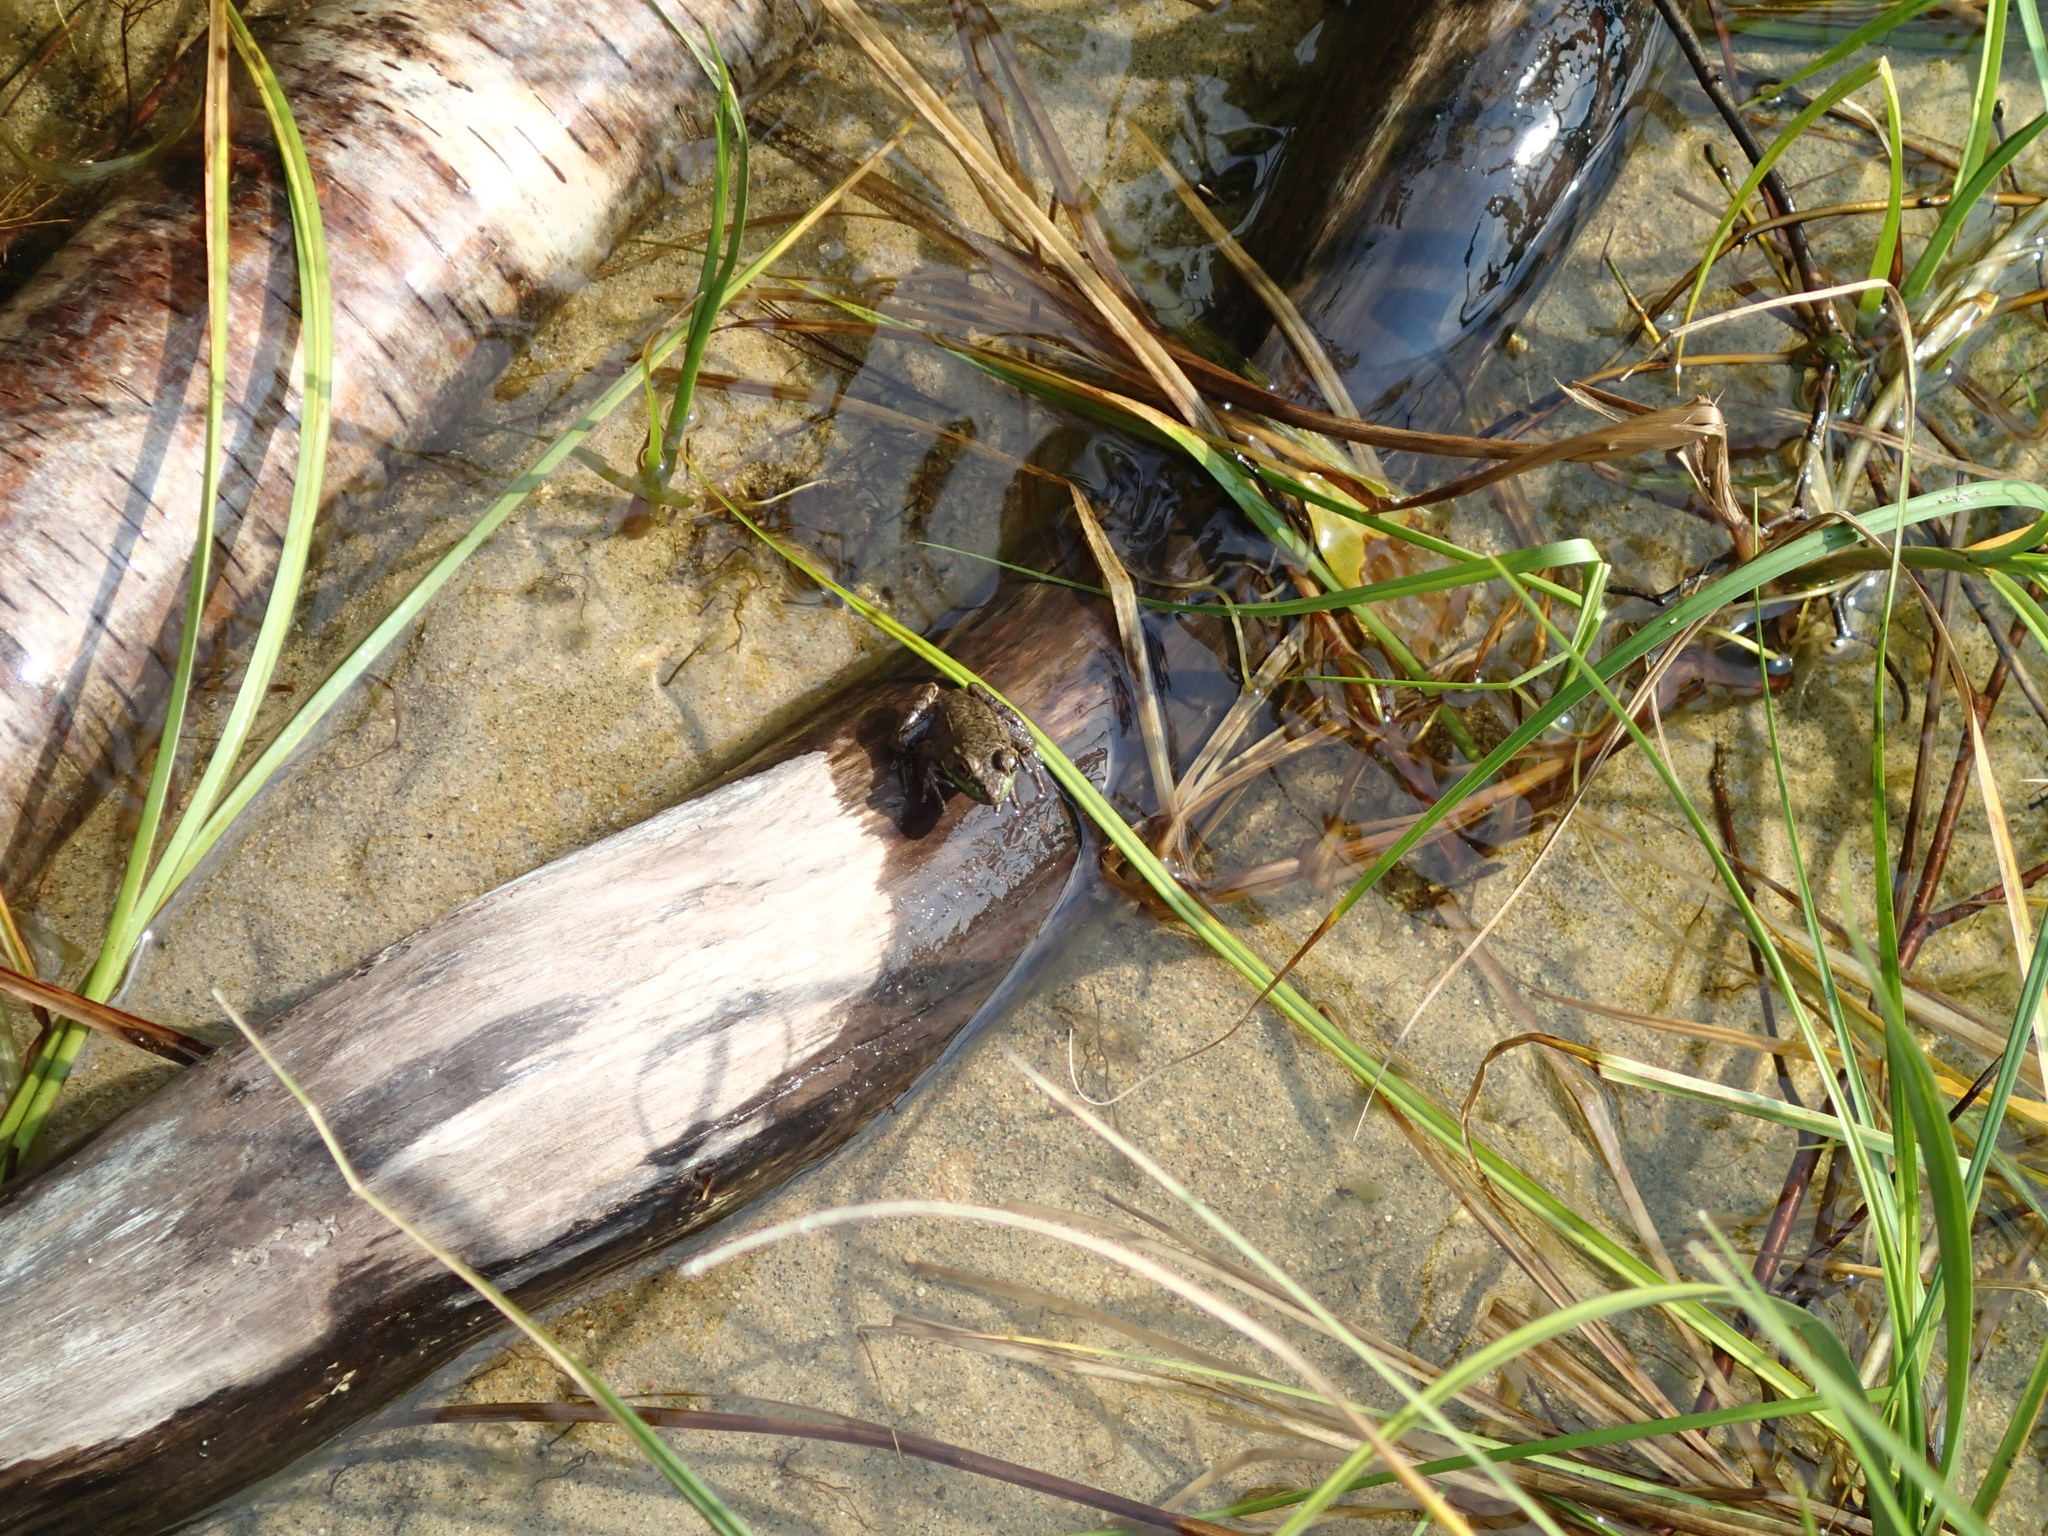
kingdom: Animalia
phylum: Chordata
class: Amphibia
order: Anura
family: Ranidae
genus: Lithobates
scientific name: Lithobates clamitans
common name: Green frog
